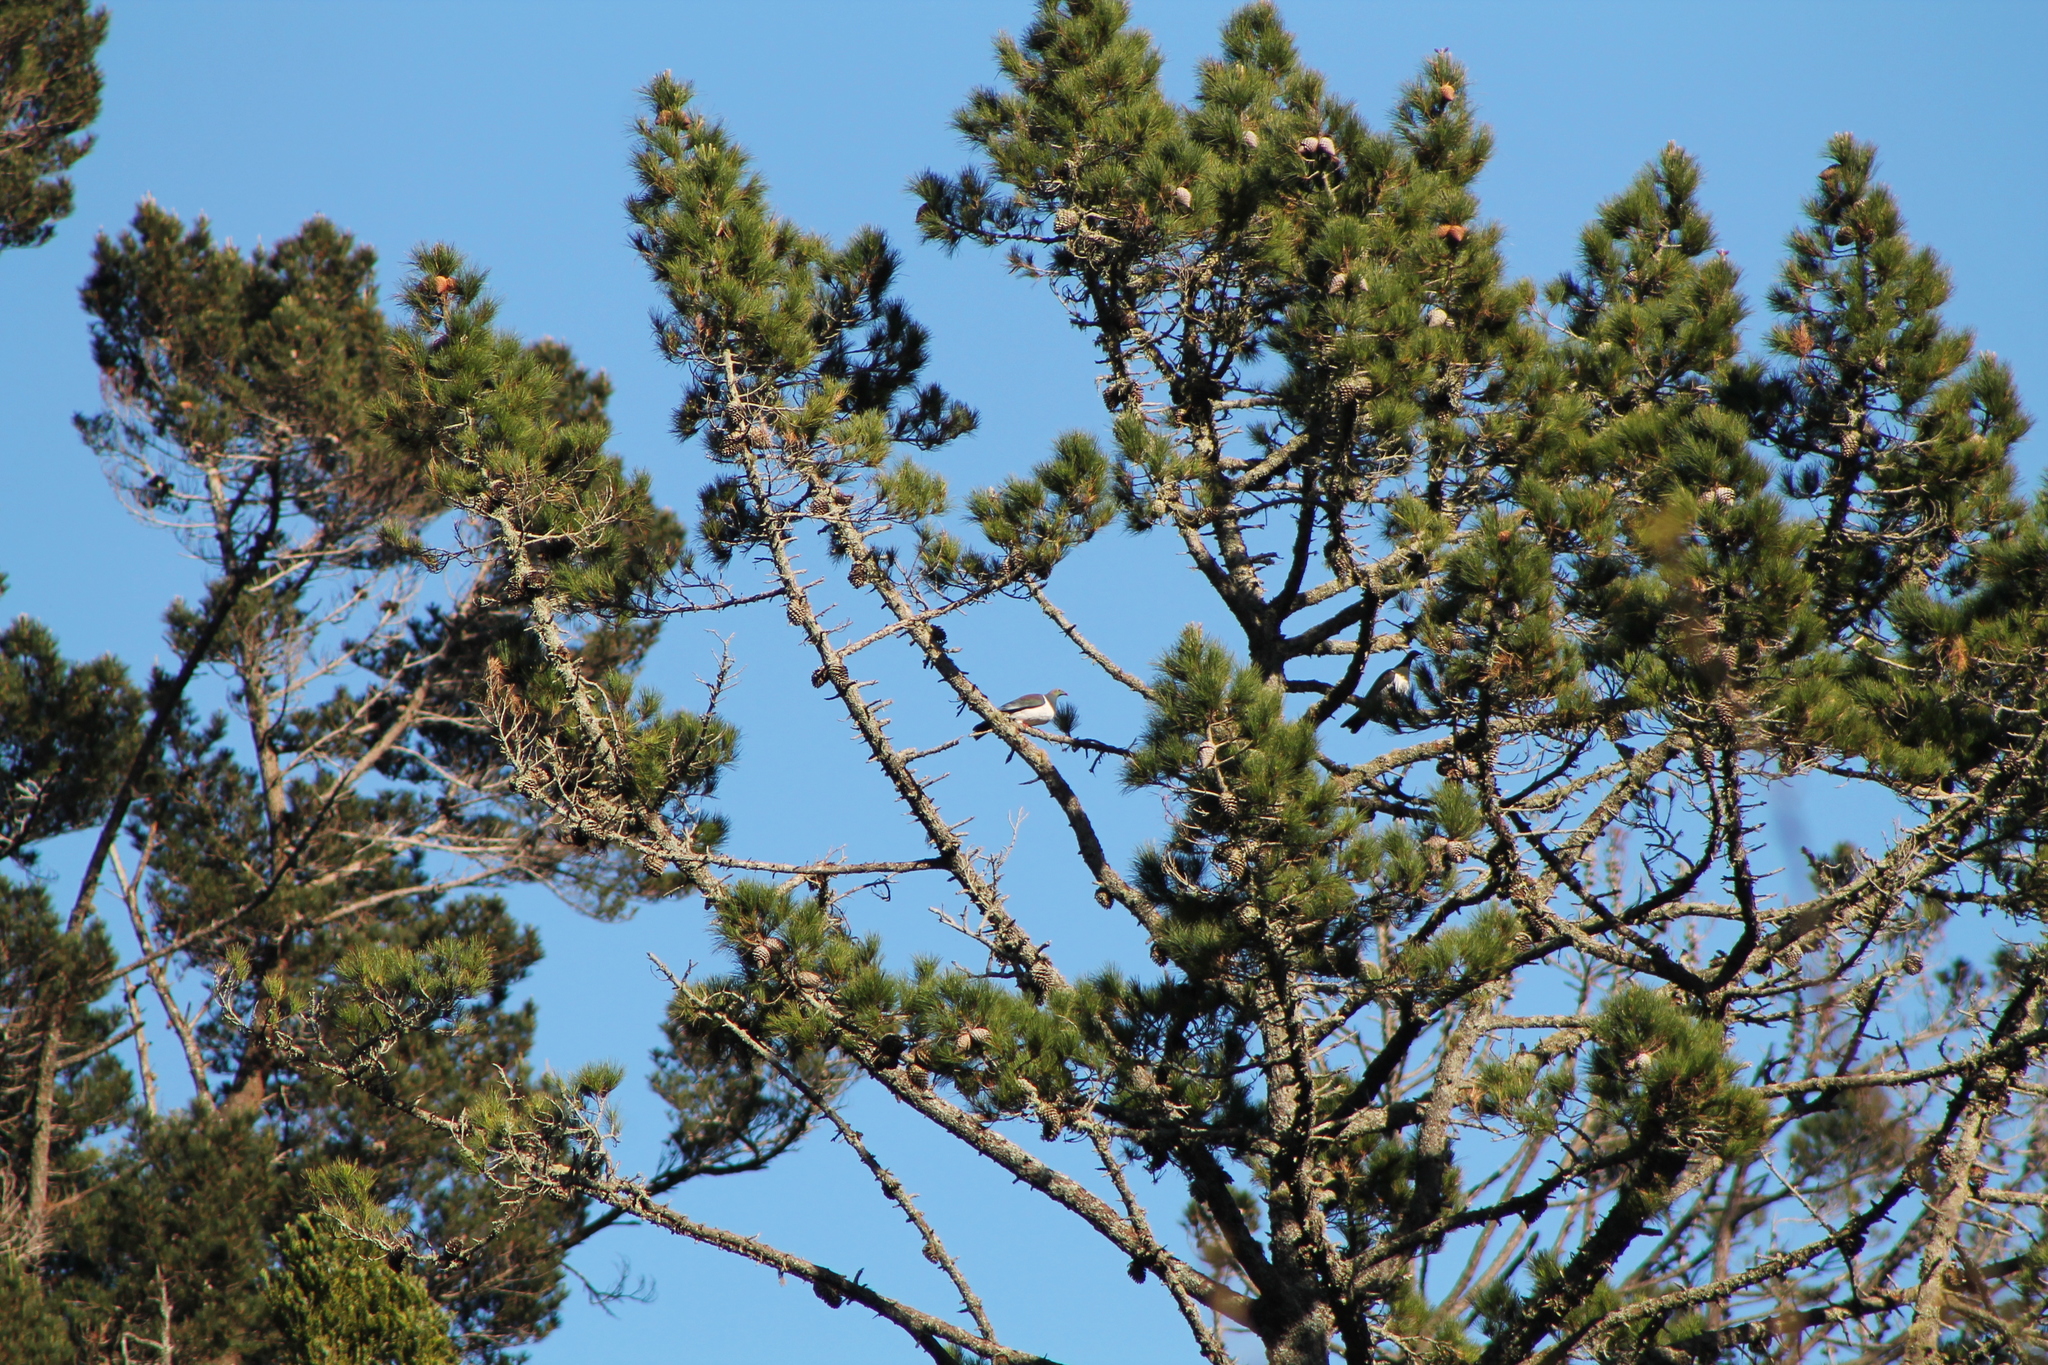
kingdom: Animalia
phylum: Chordata
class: Aves
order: Columbiformes
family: Columbidae
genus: Hemiphaga
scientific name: Hemiphaga novaeseelandiae
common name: New zealand pigeon
